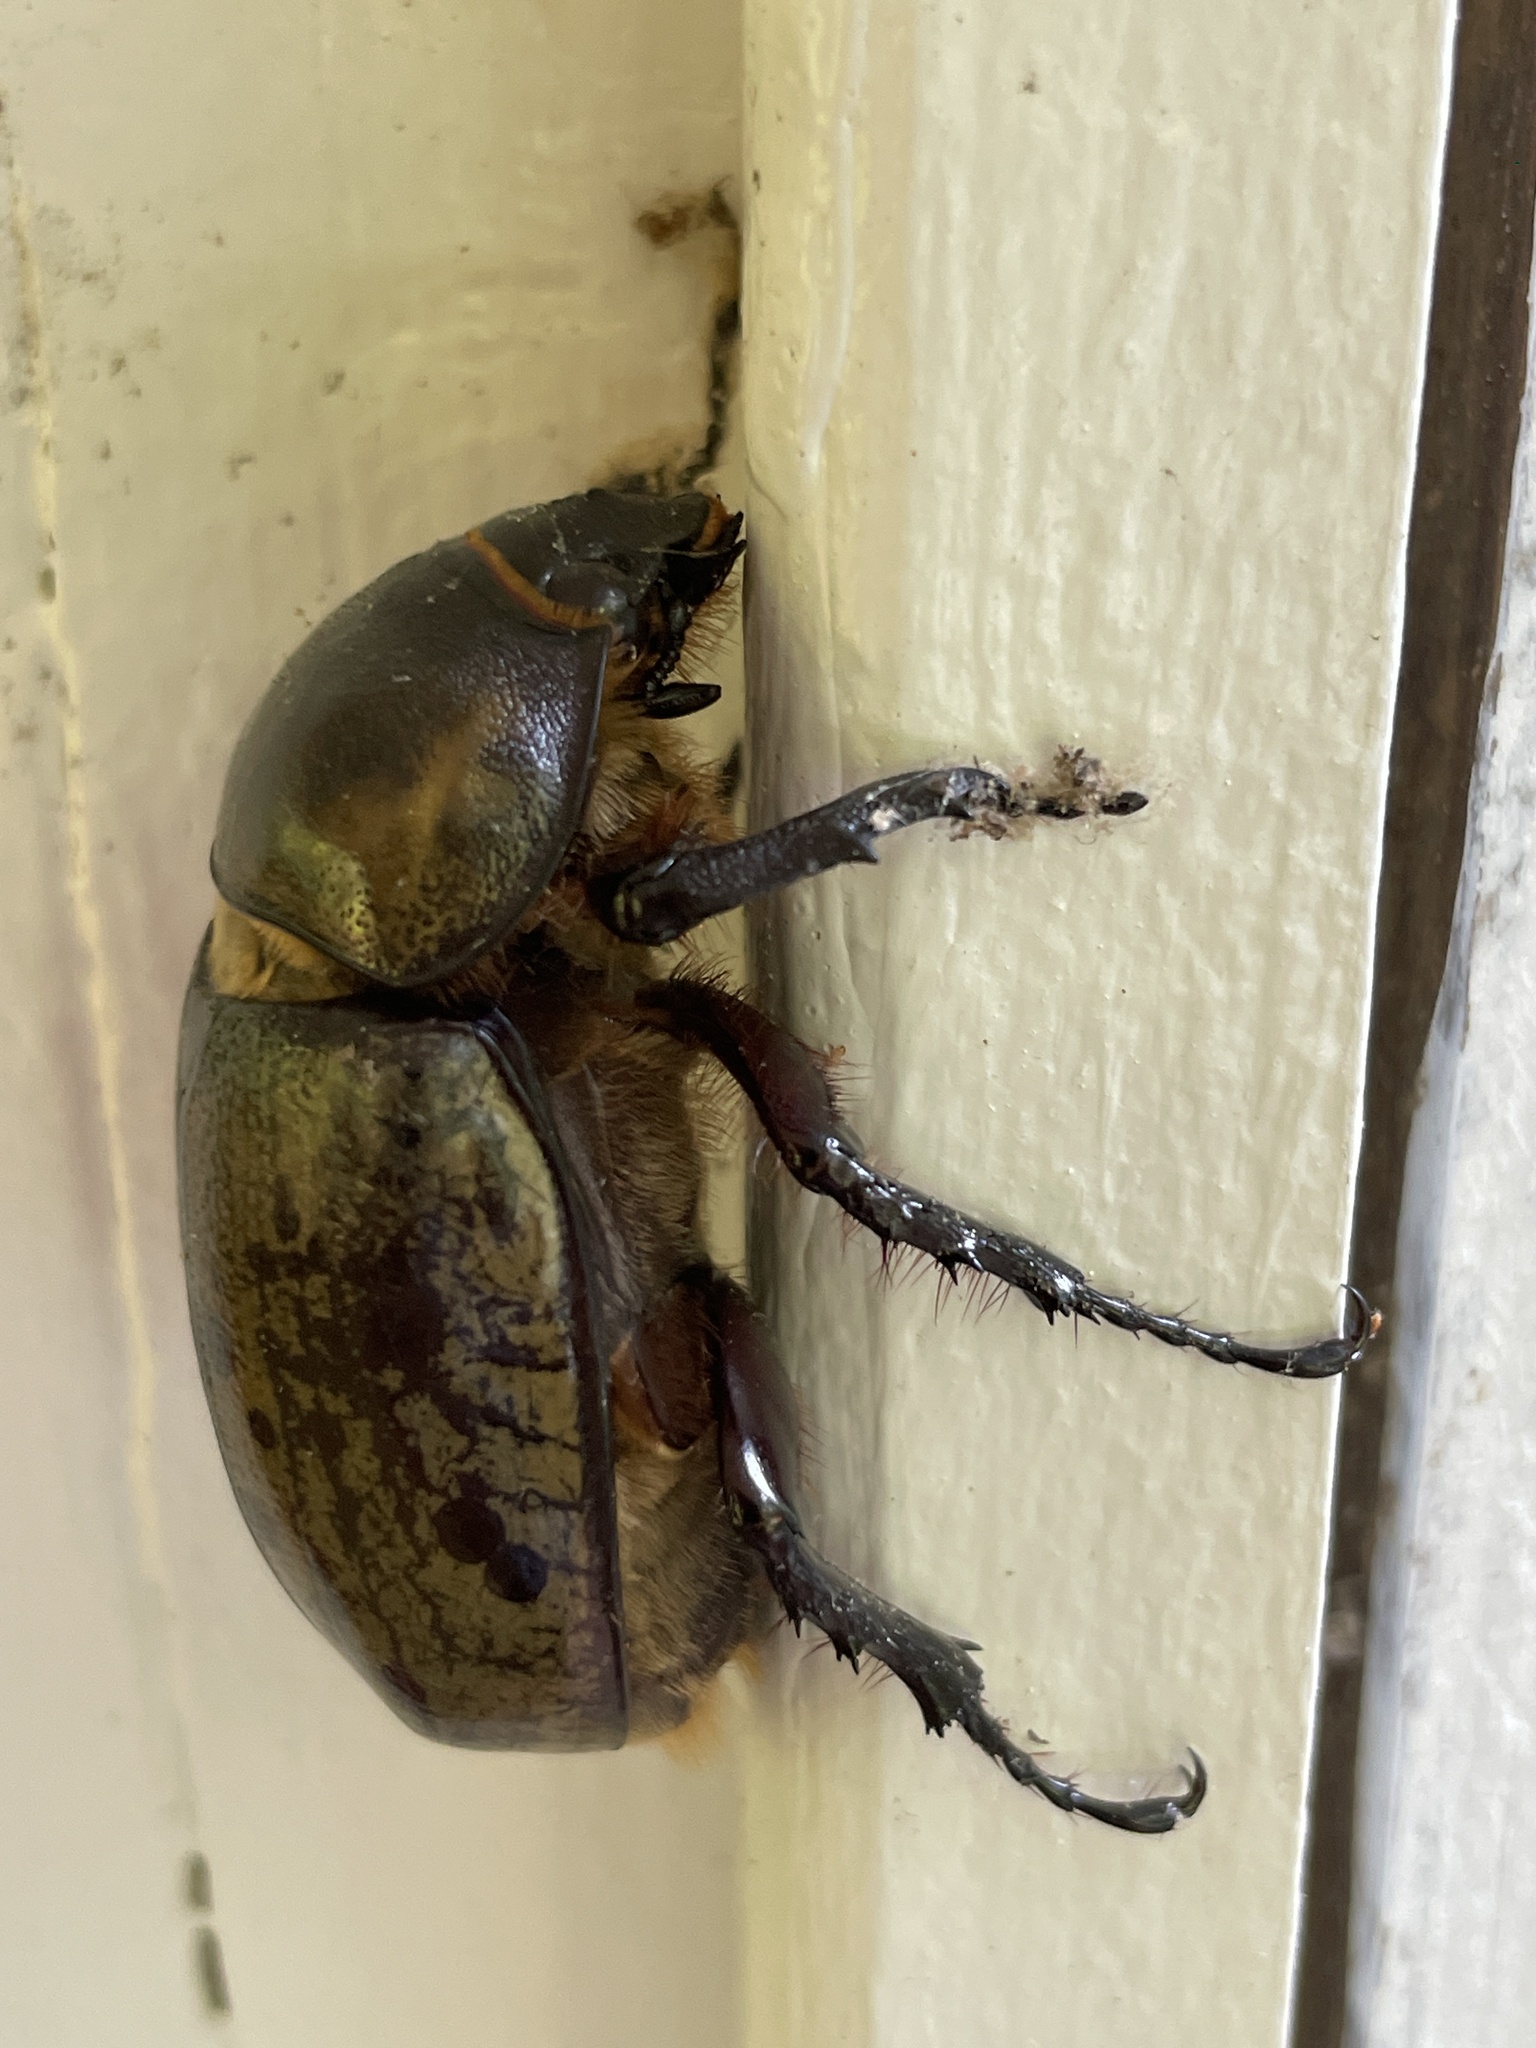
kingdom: Animalia
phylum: Arthropoda
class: Insecta
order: Coleoptera
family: Scarabaeidae
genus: Dynastes
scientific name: Dynastes tityus
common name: Eastern hercules beetle
